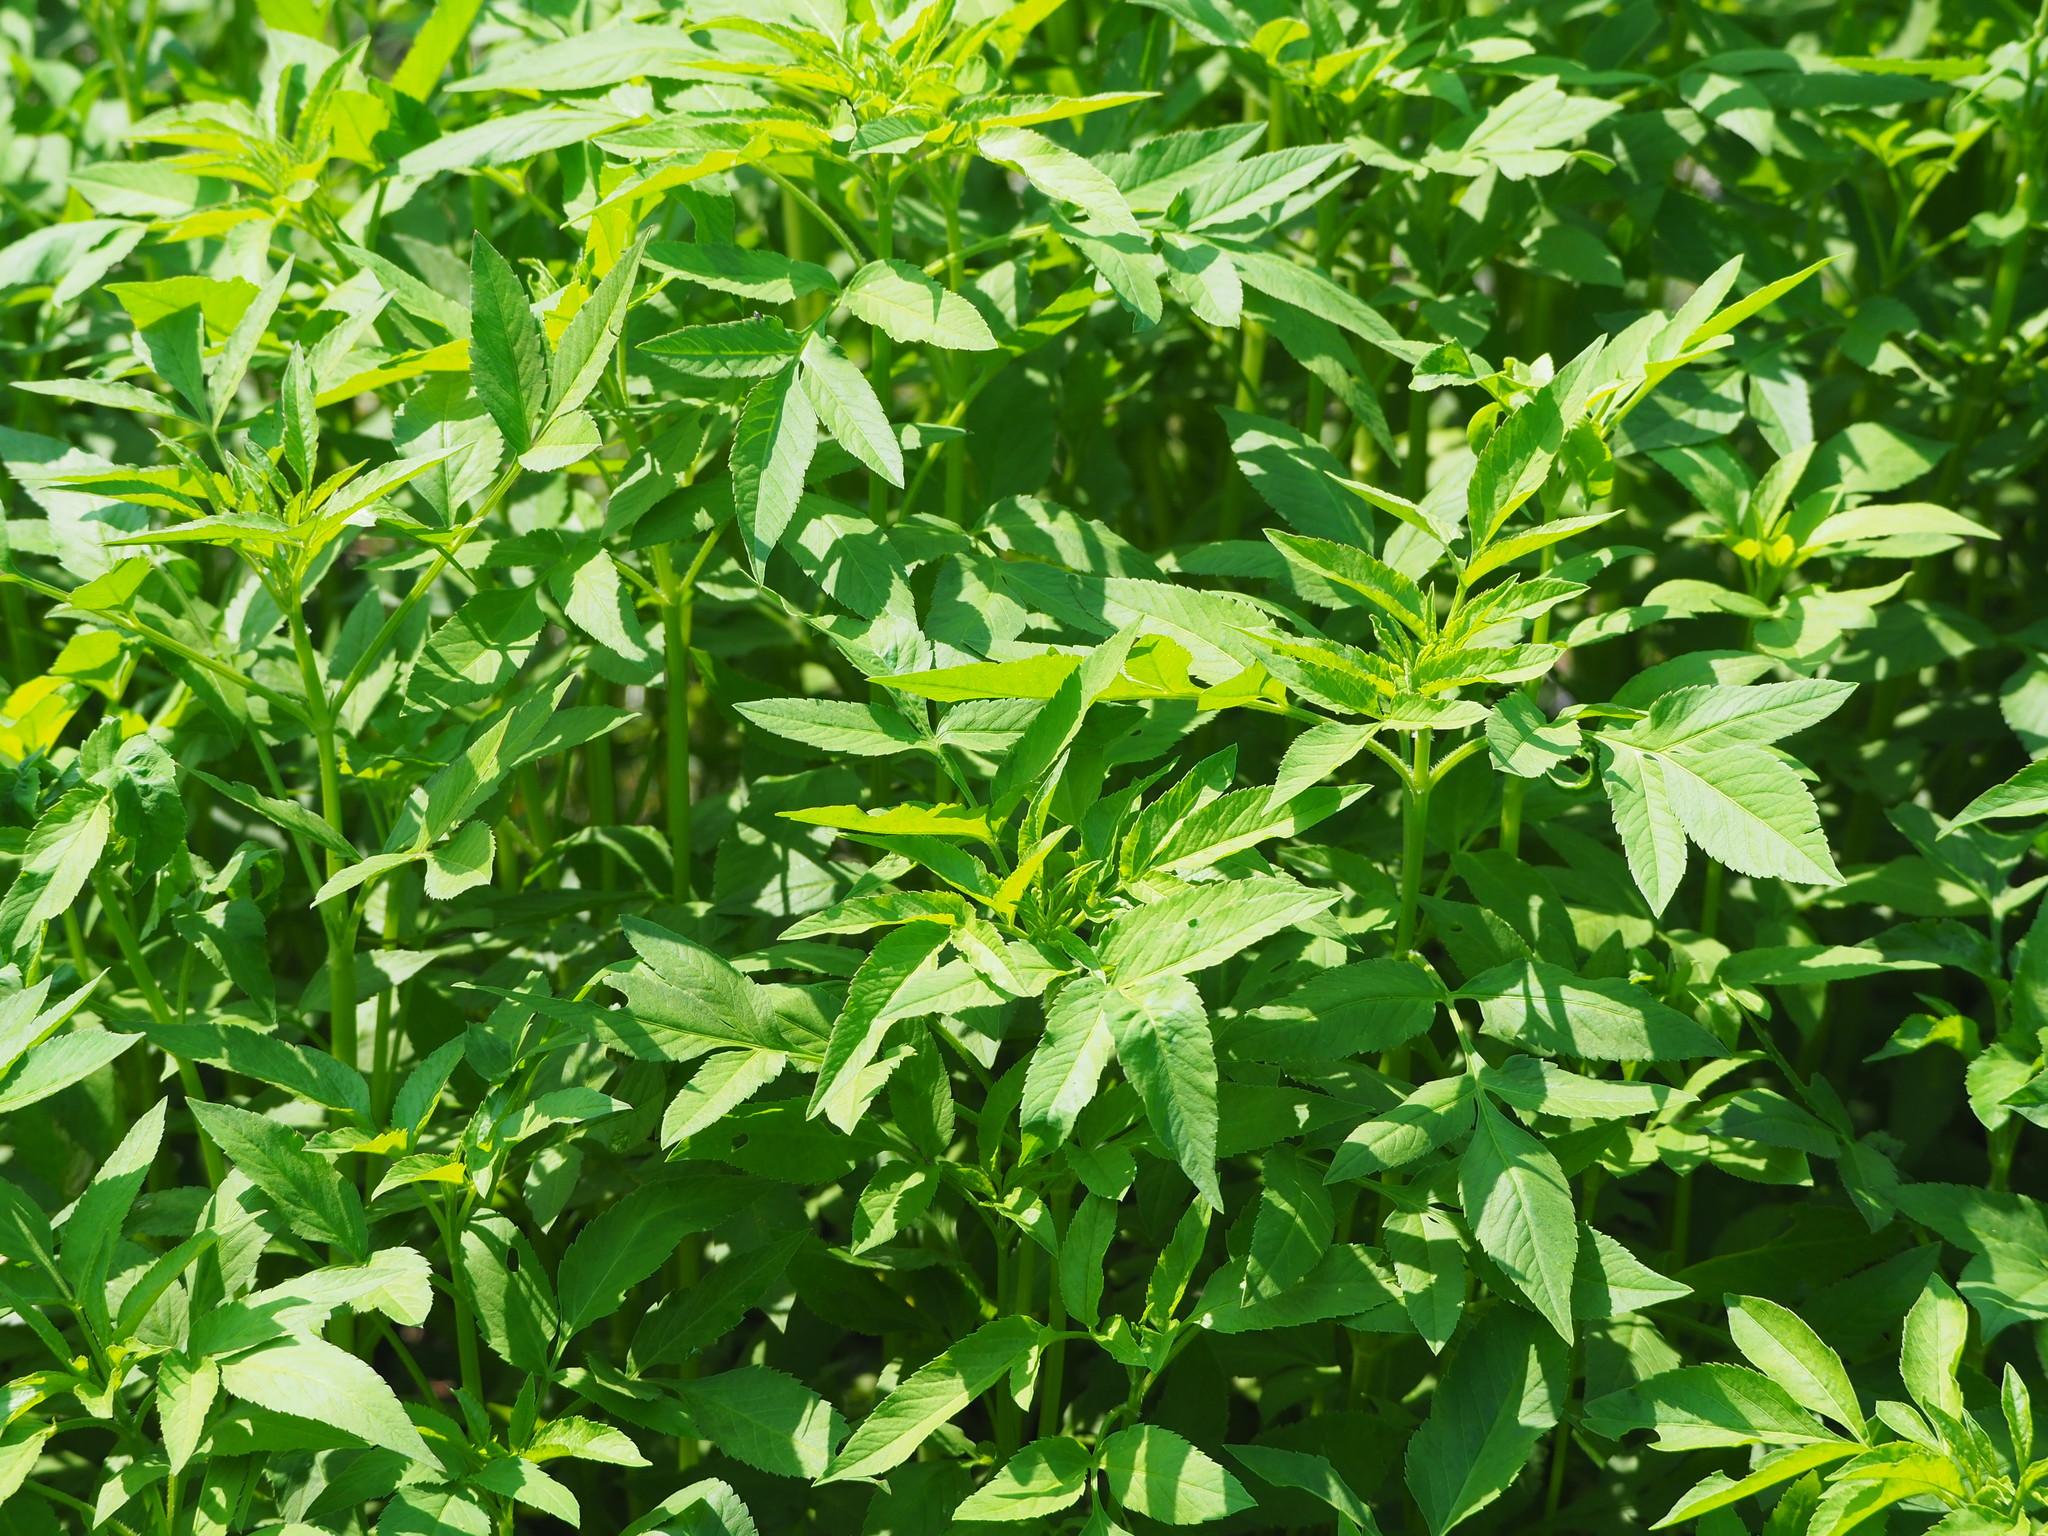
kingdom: Plantae
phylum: Tracheophyta
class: Magnoliopsida
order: Asterales
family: Asteraceae
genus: Bidens
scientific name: Bidens alba
